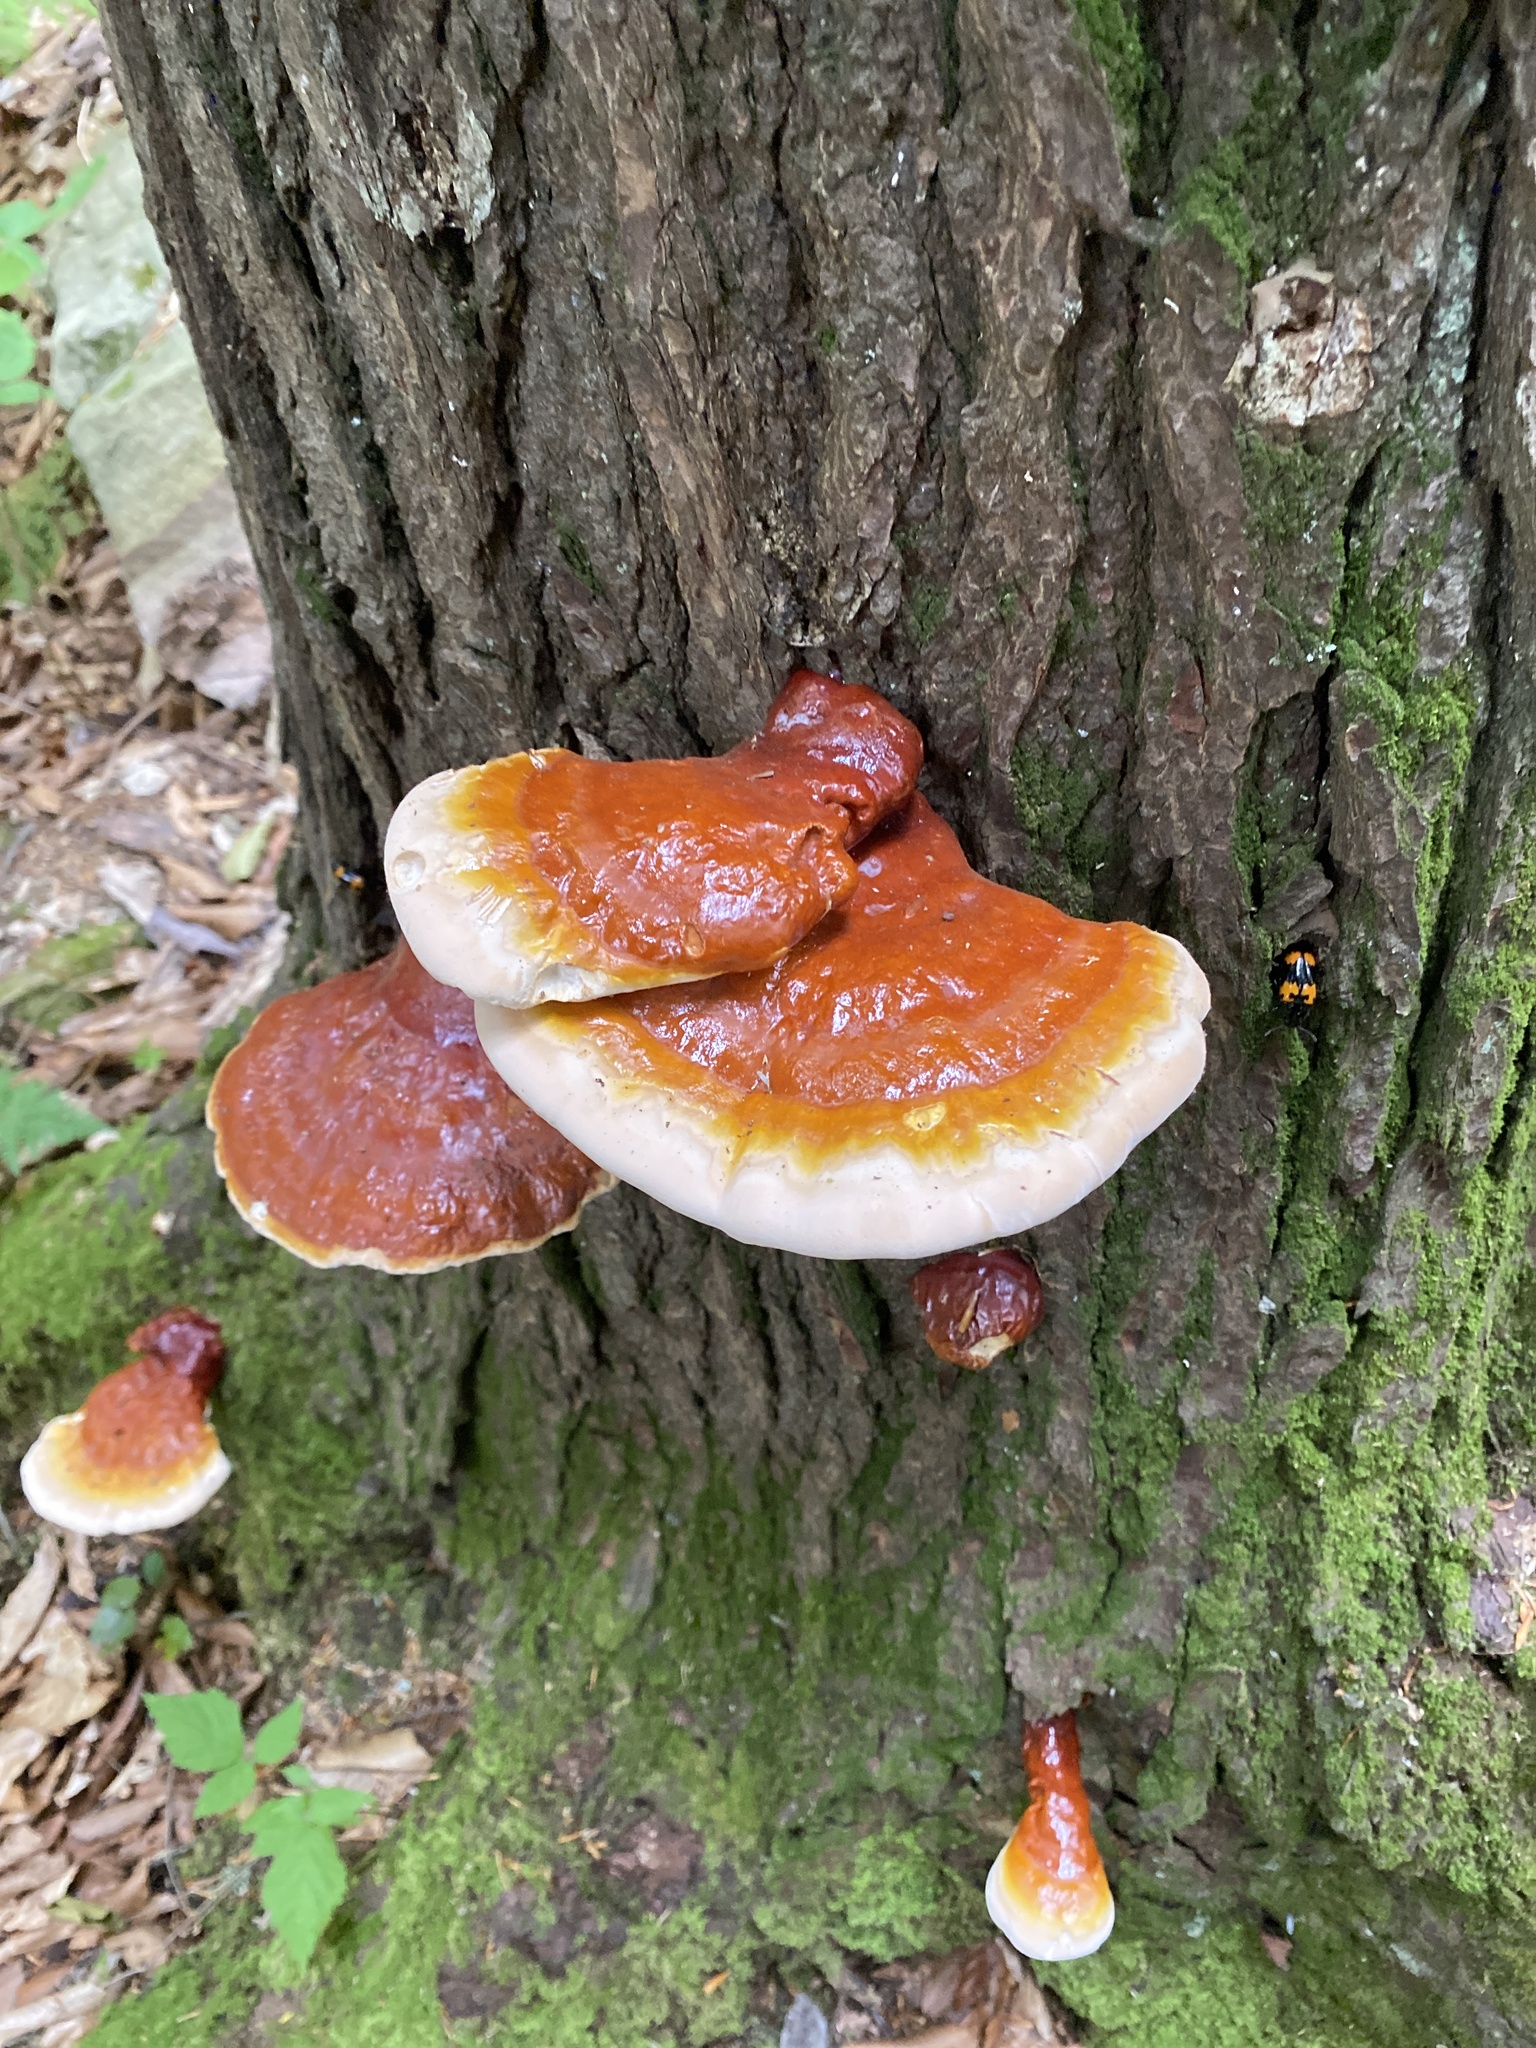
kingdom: Fungi
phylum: Basidiomycota
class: Agaricomycetes
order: Polyporales
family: Polyporaceae
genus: Ganoderma
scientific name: Ganoderma tsugae
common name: Hemlock varnish shelf
